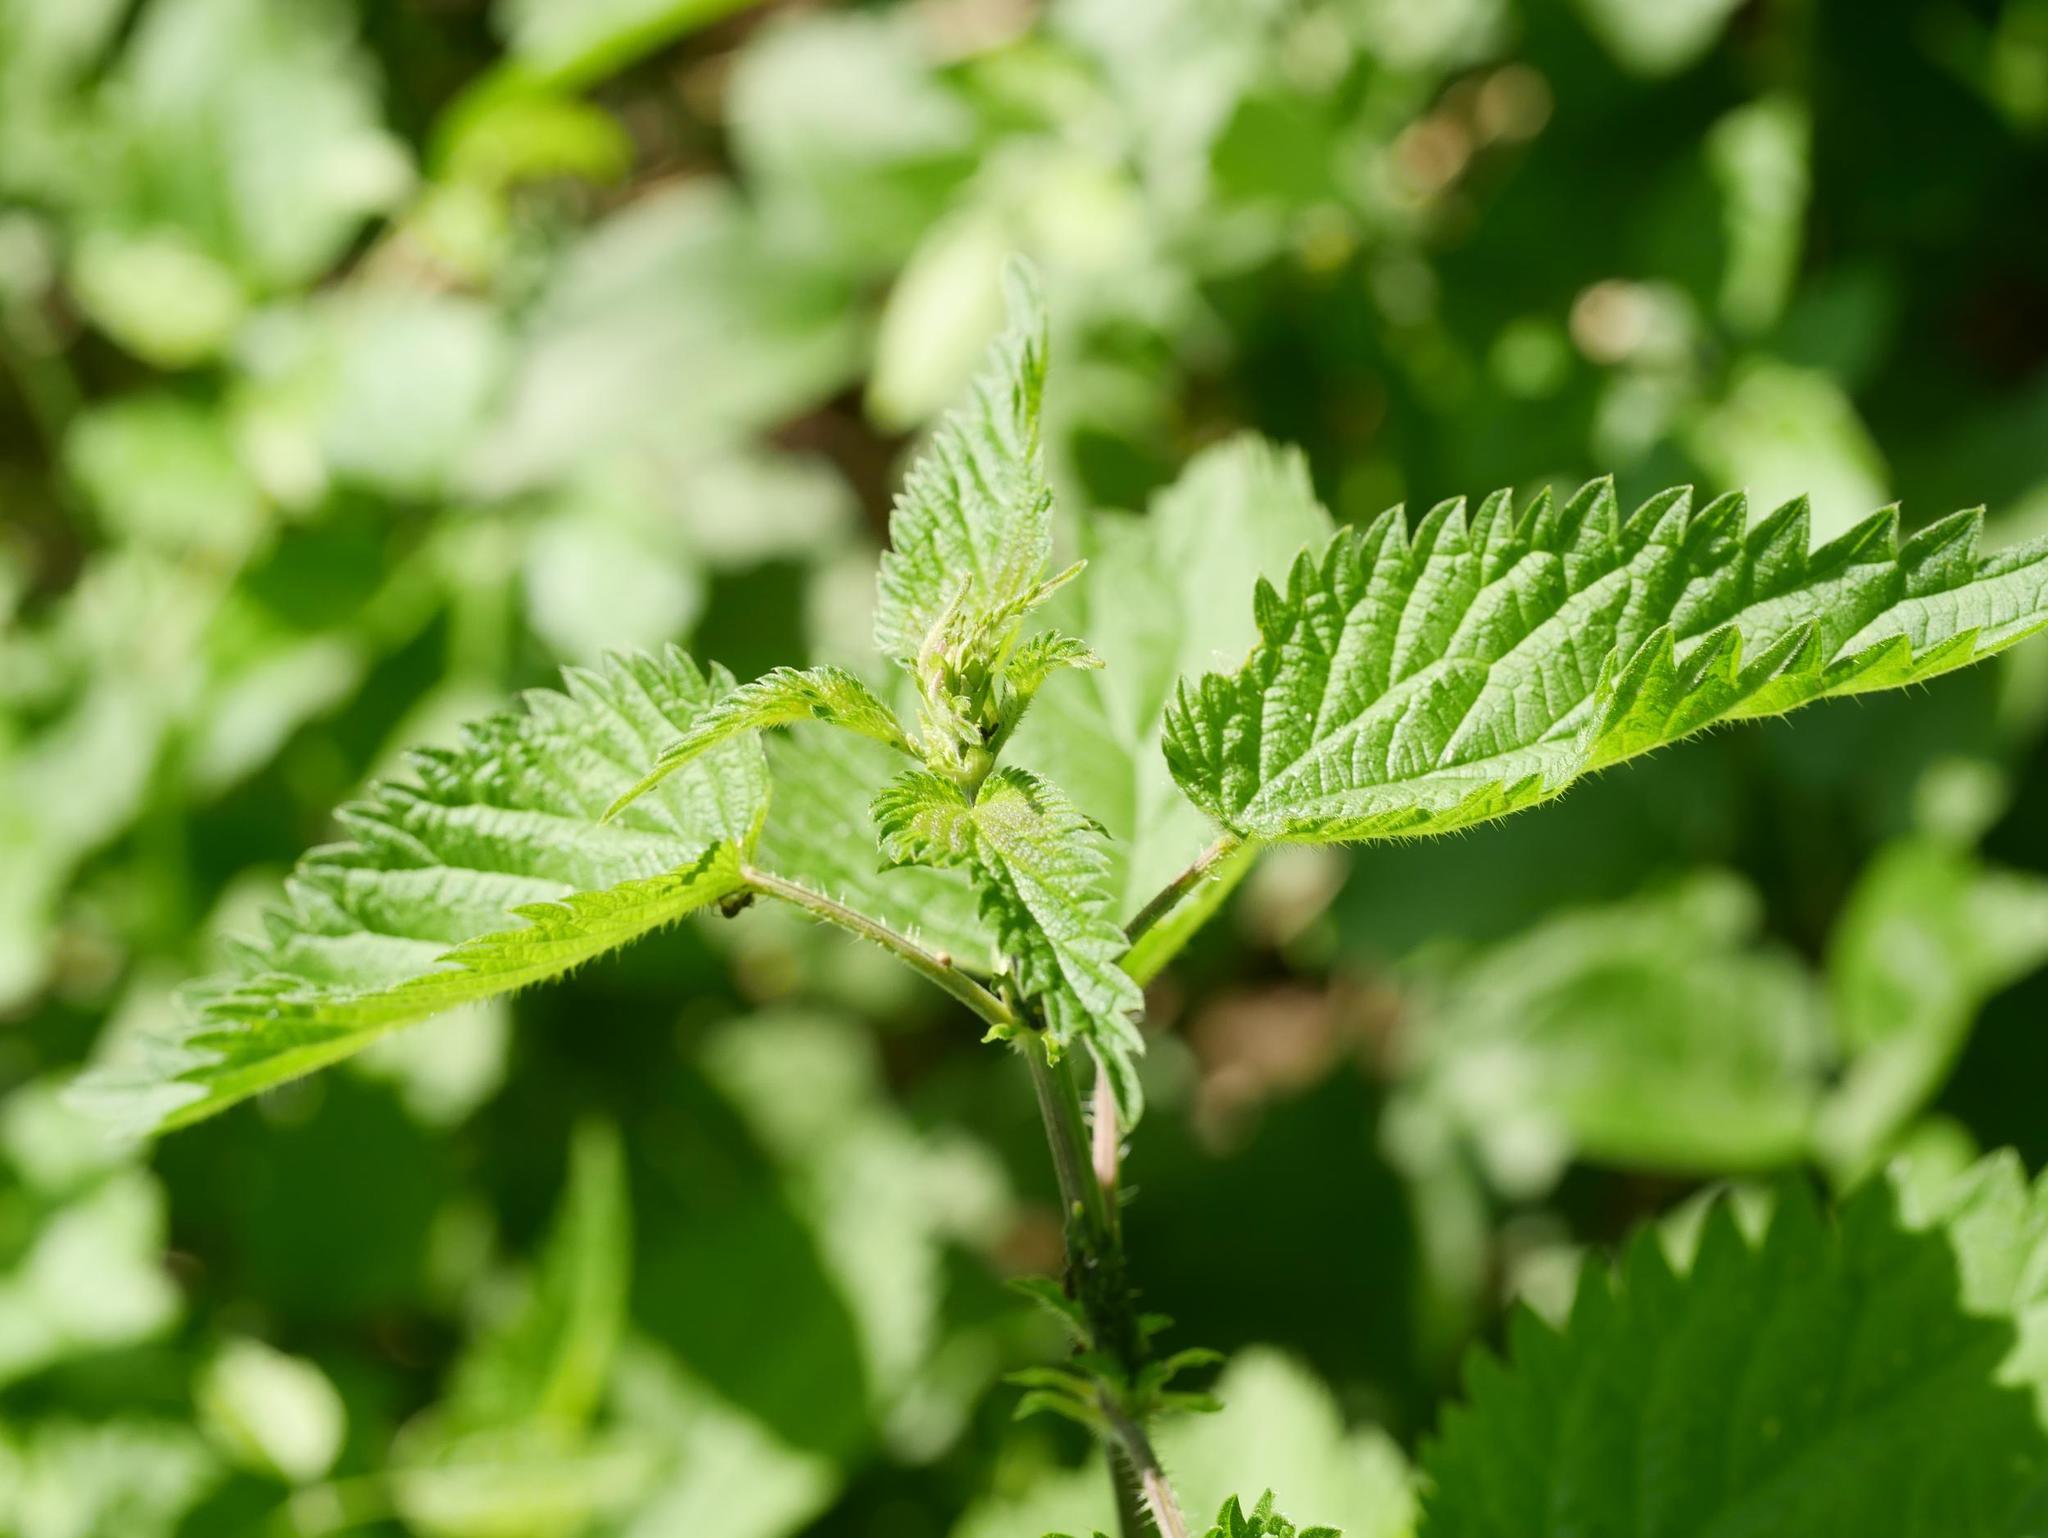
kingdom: Plantae
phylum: Tracheophyta
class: Magnoliopsida
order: Rosales
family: Urticaceae
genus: Urtica
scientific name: Urtica dioica
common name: Common nettle
